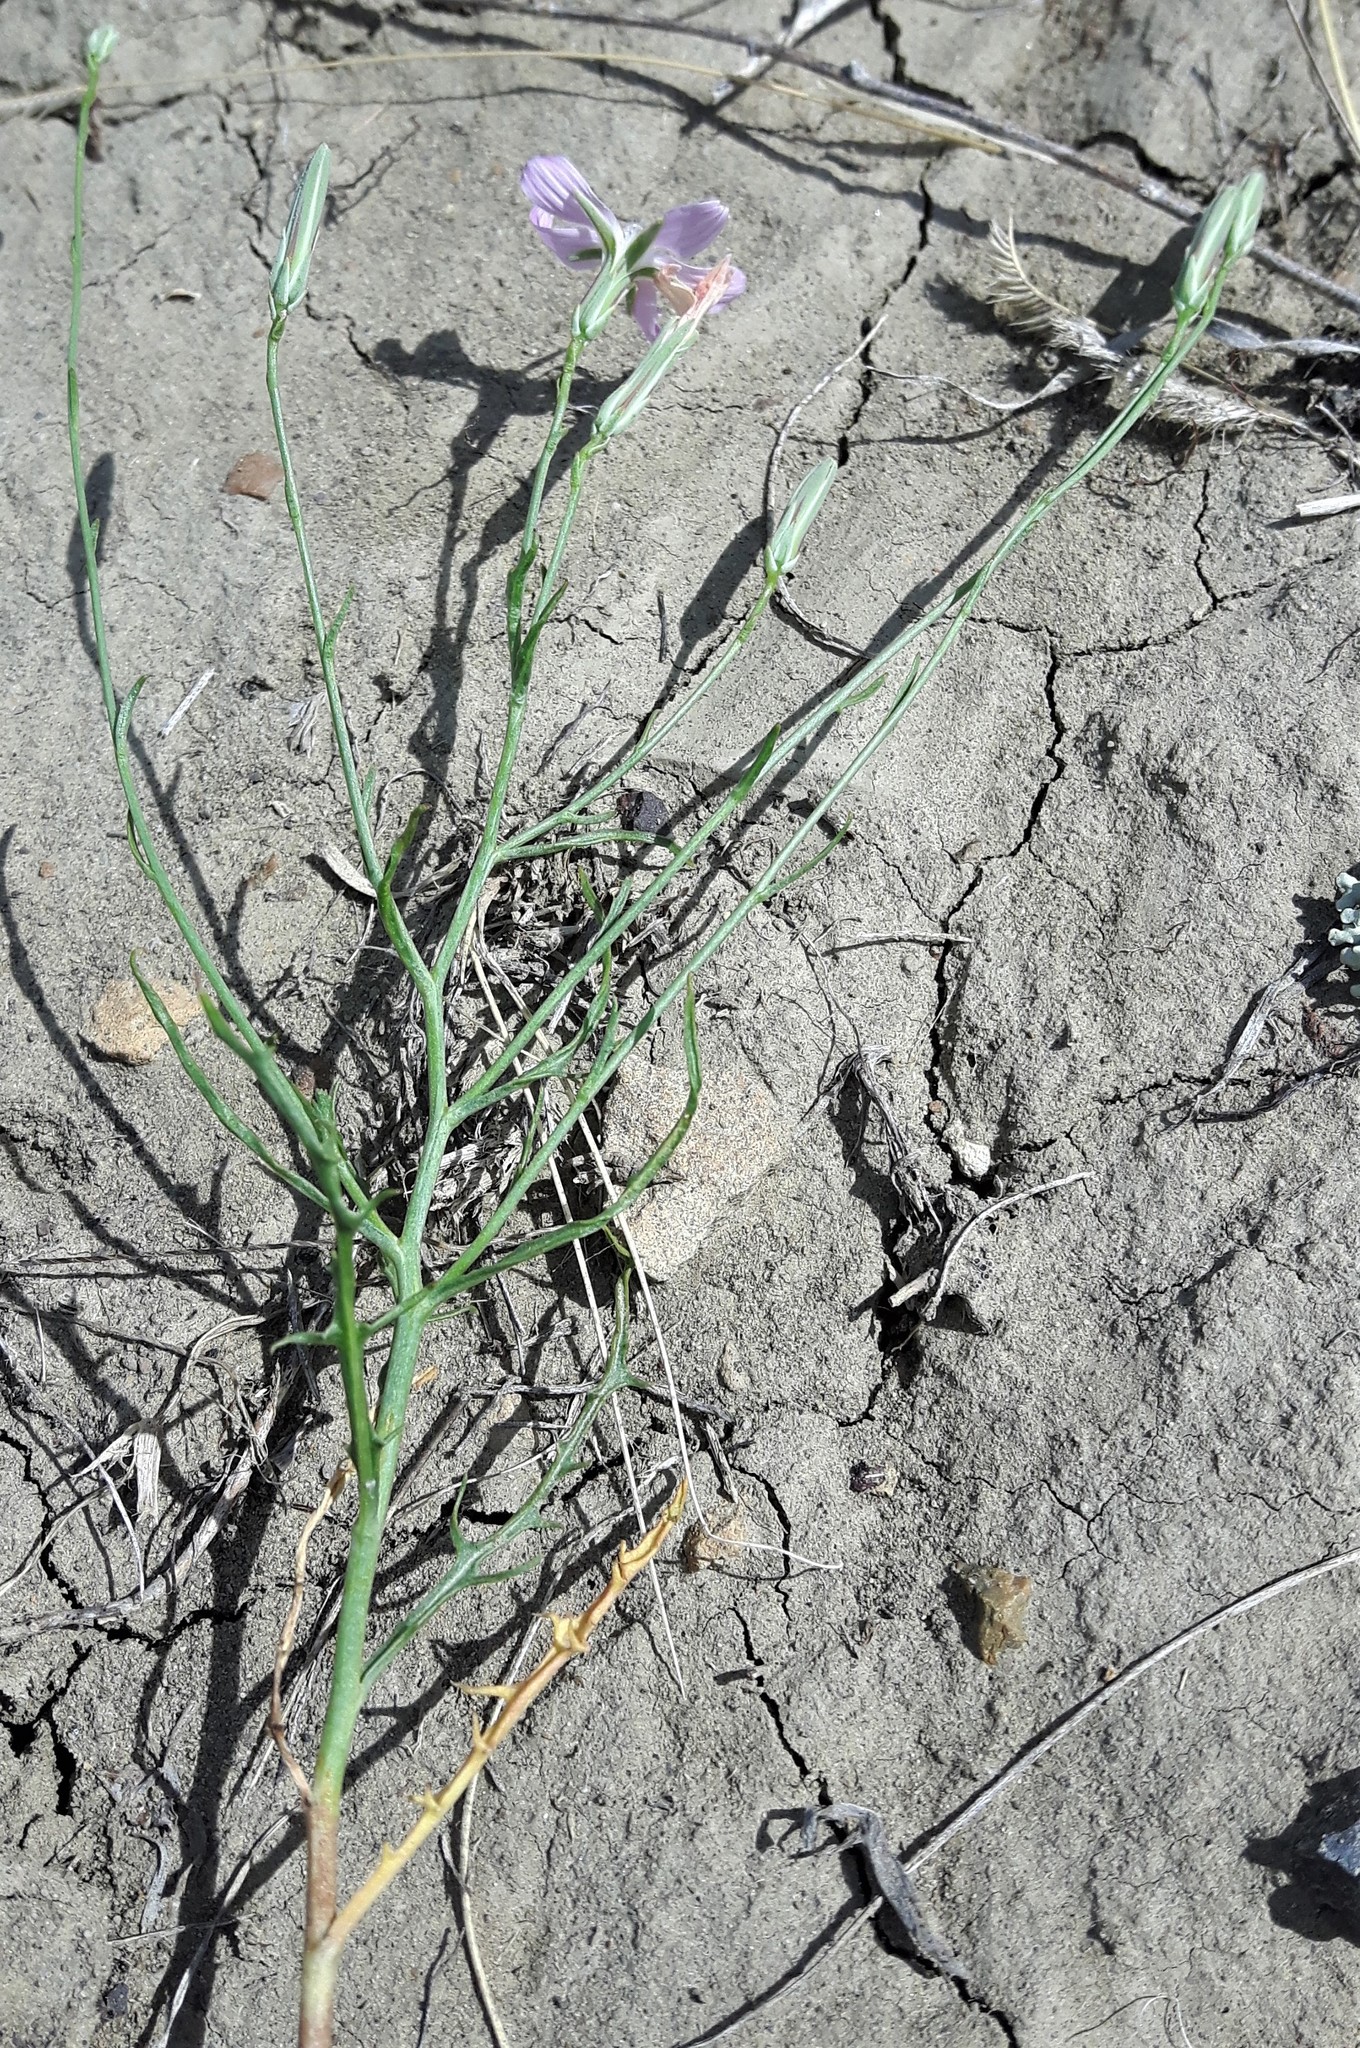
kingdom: Plantae
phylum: Tracheophyta
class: Magnoliopsida
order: Asterales
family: Asteraceae
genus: Stephanomeria
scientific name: Stephanomeria runcinata
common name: Desert wirelettuce
